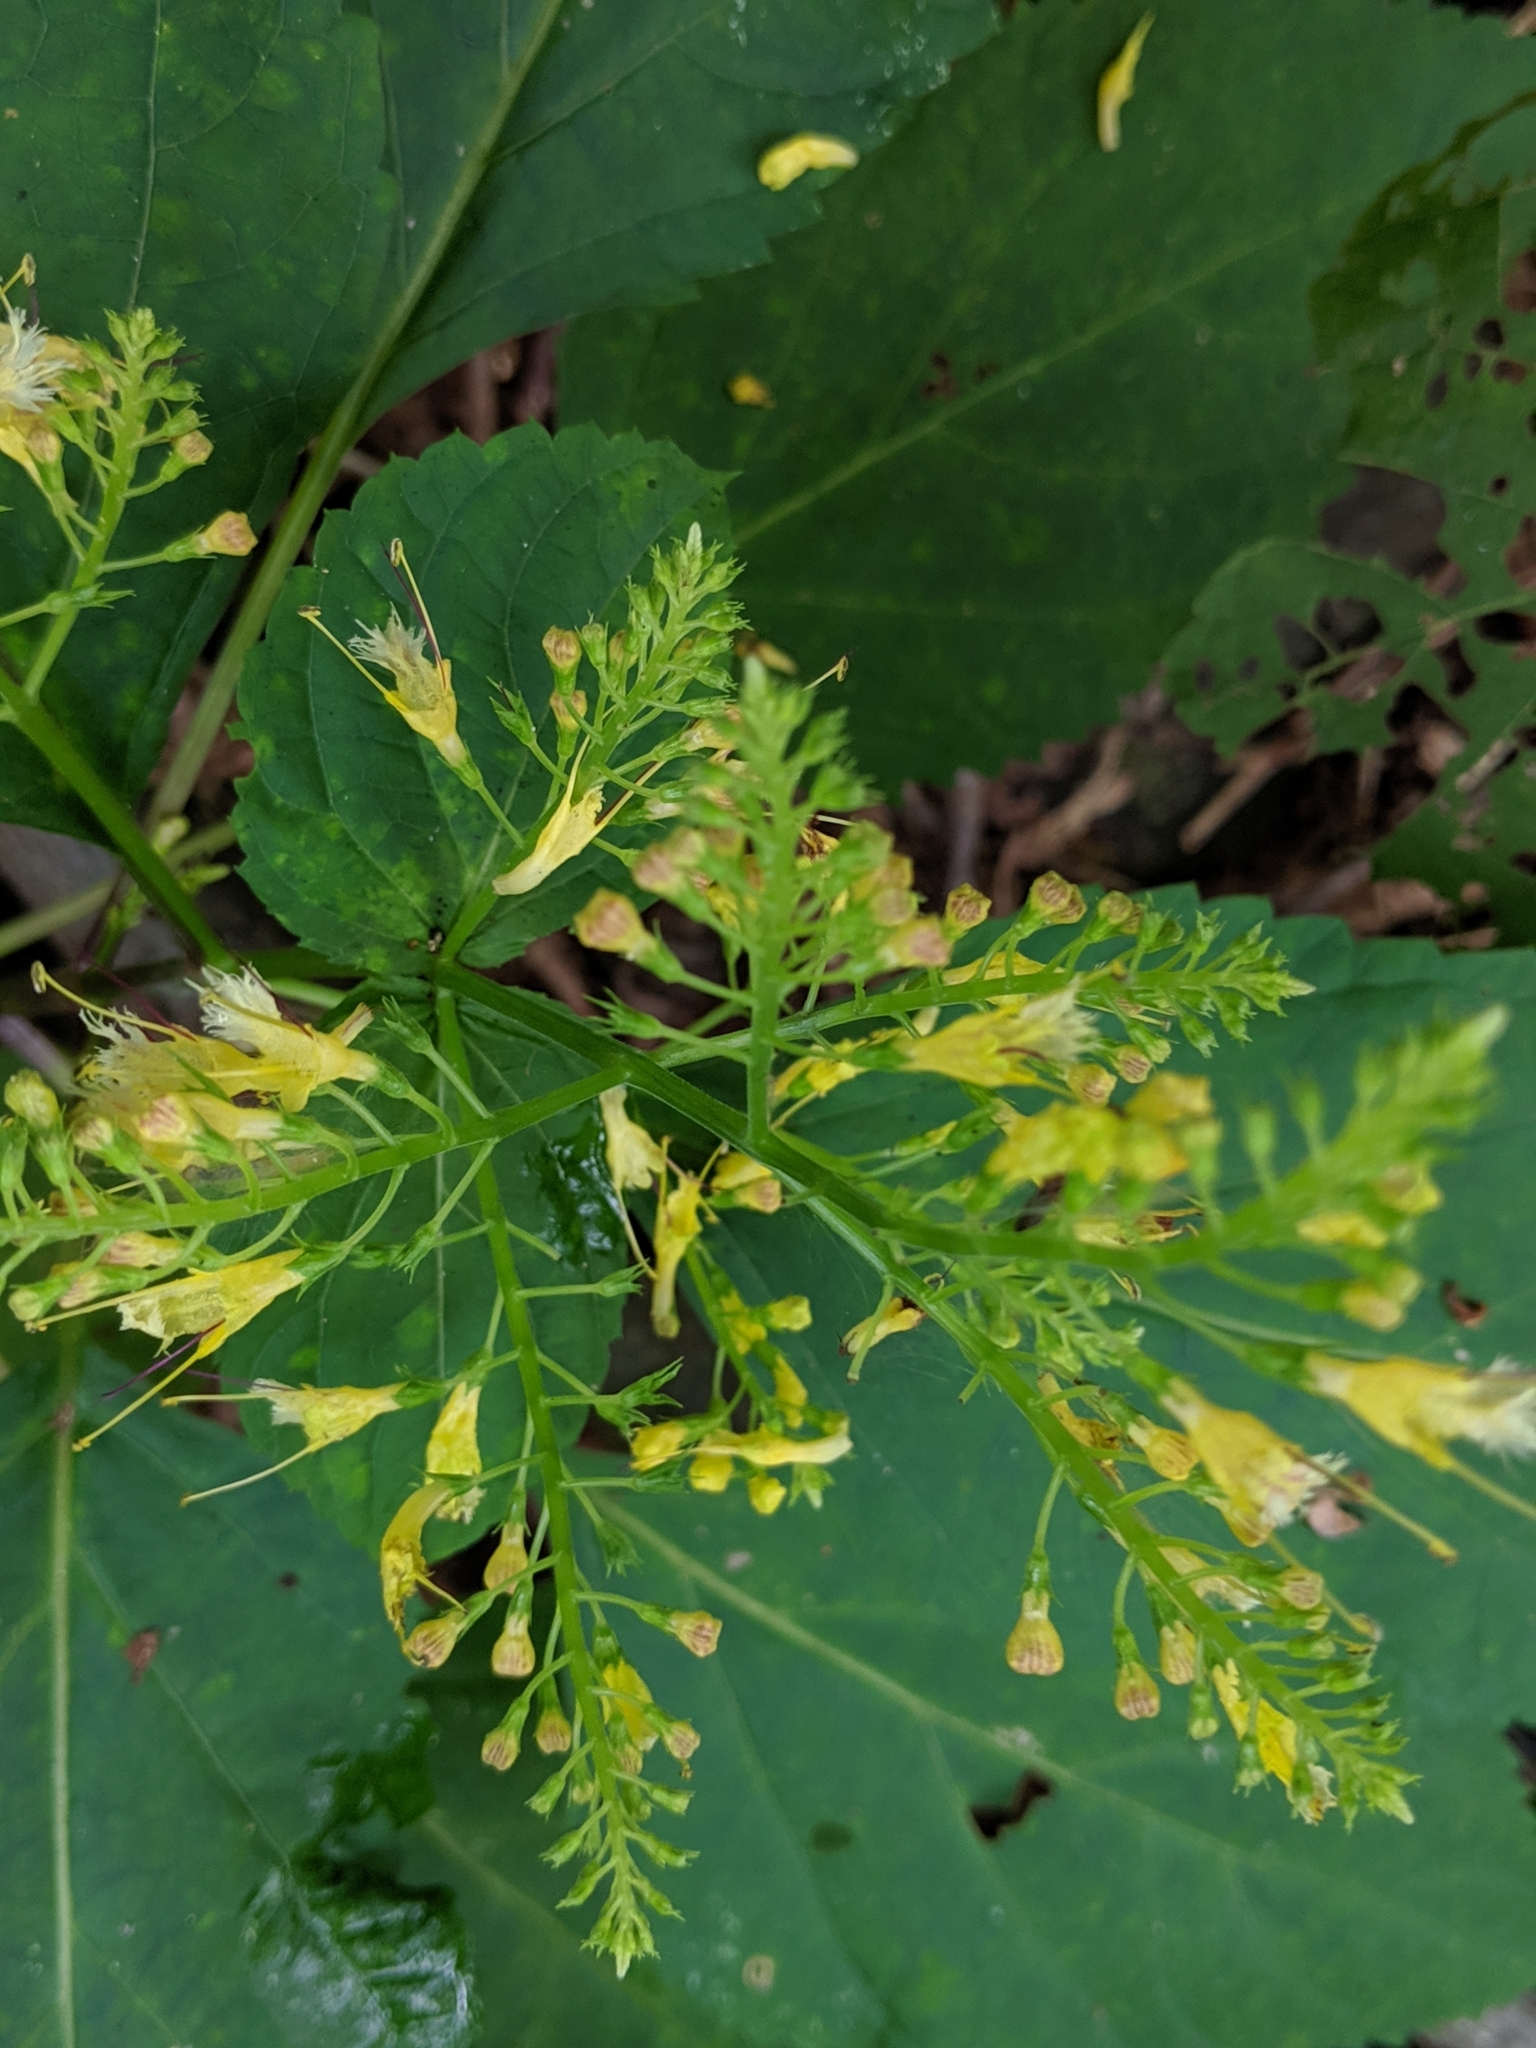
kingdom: Plantae
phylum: Tracheophyta
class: Magnoliopsida
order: Lamiales
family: Lamiaceae
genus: Collinsonia
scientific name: Collinsonia canadensis
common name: Northern horsebalm
